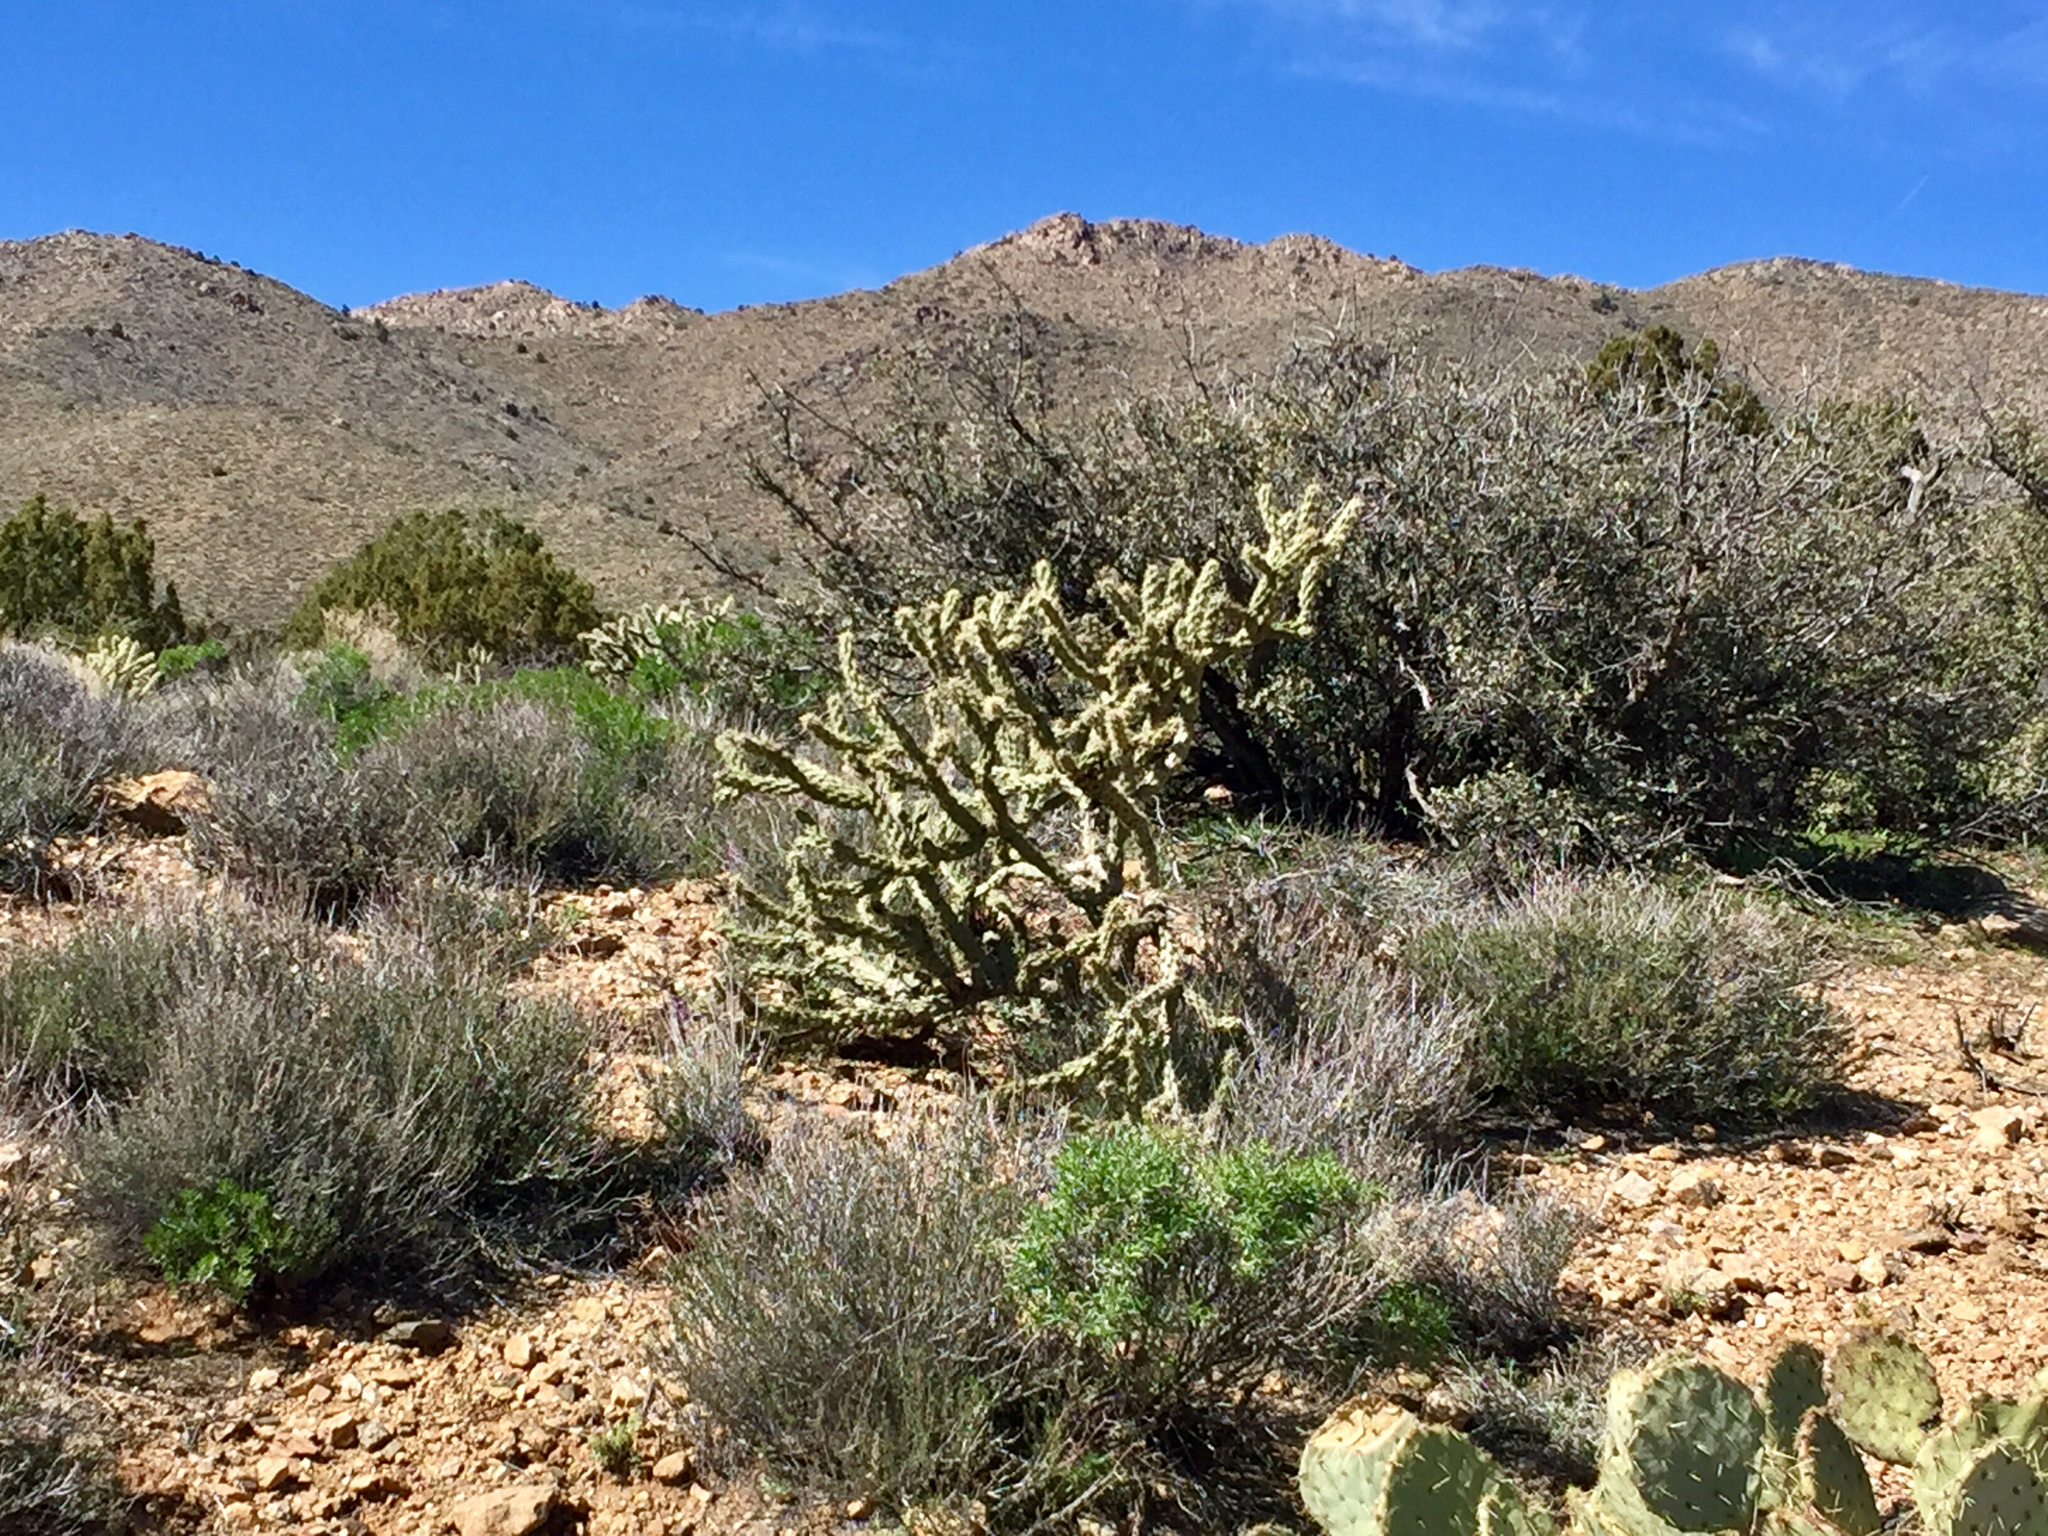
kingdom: Plantae
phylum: Tracheophyta
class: Magnoliopsida
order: Caryophyllales
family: Cactaceae
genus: Cylindropuntia
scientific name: Cylindropuntia acanthocarpa
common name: Buckhorn cholla
